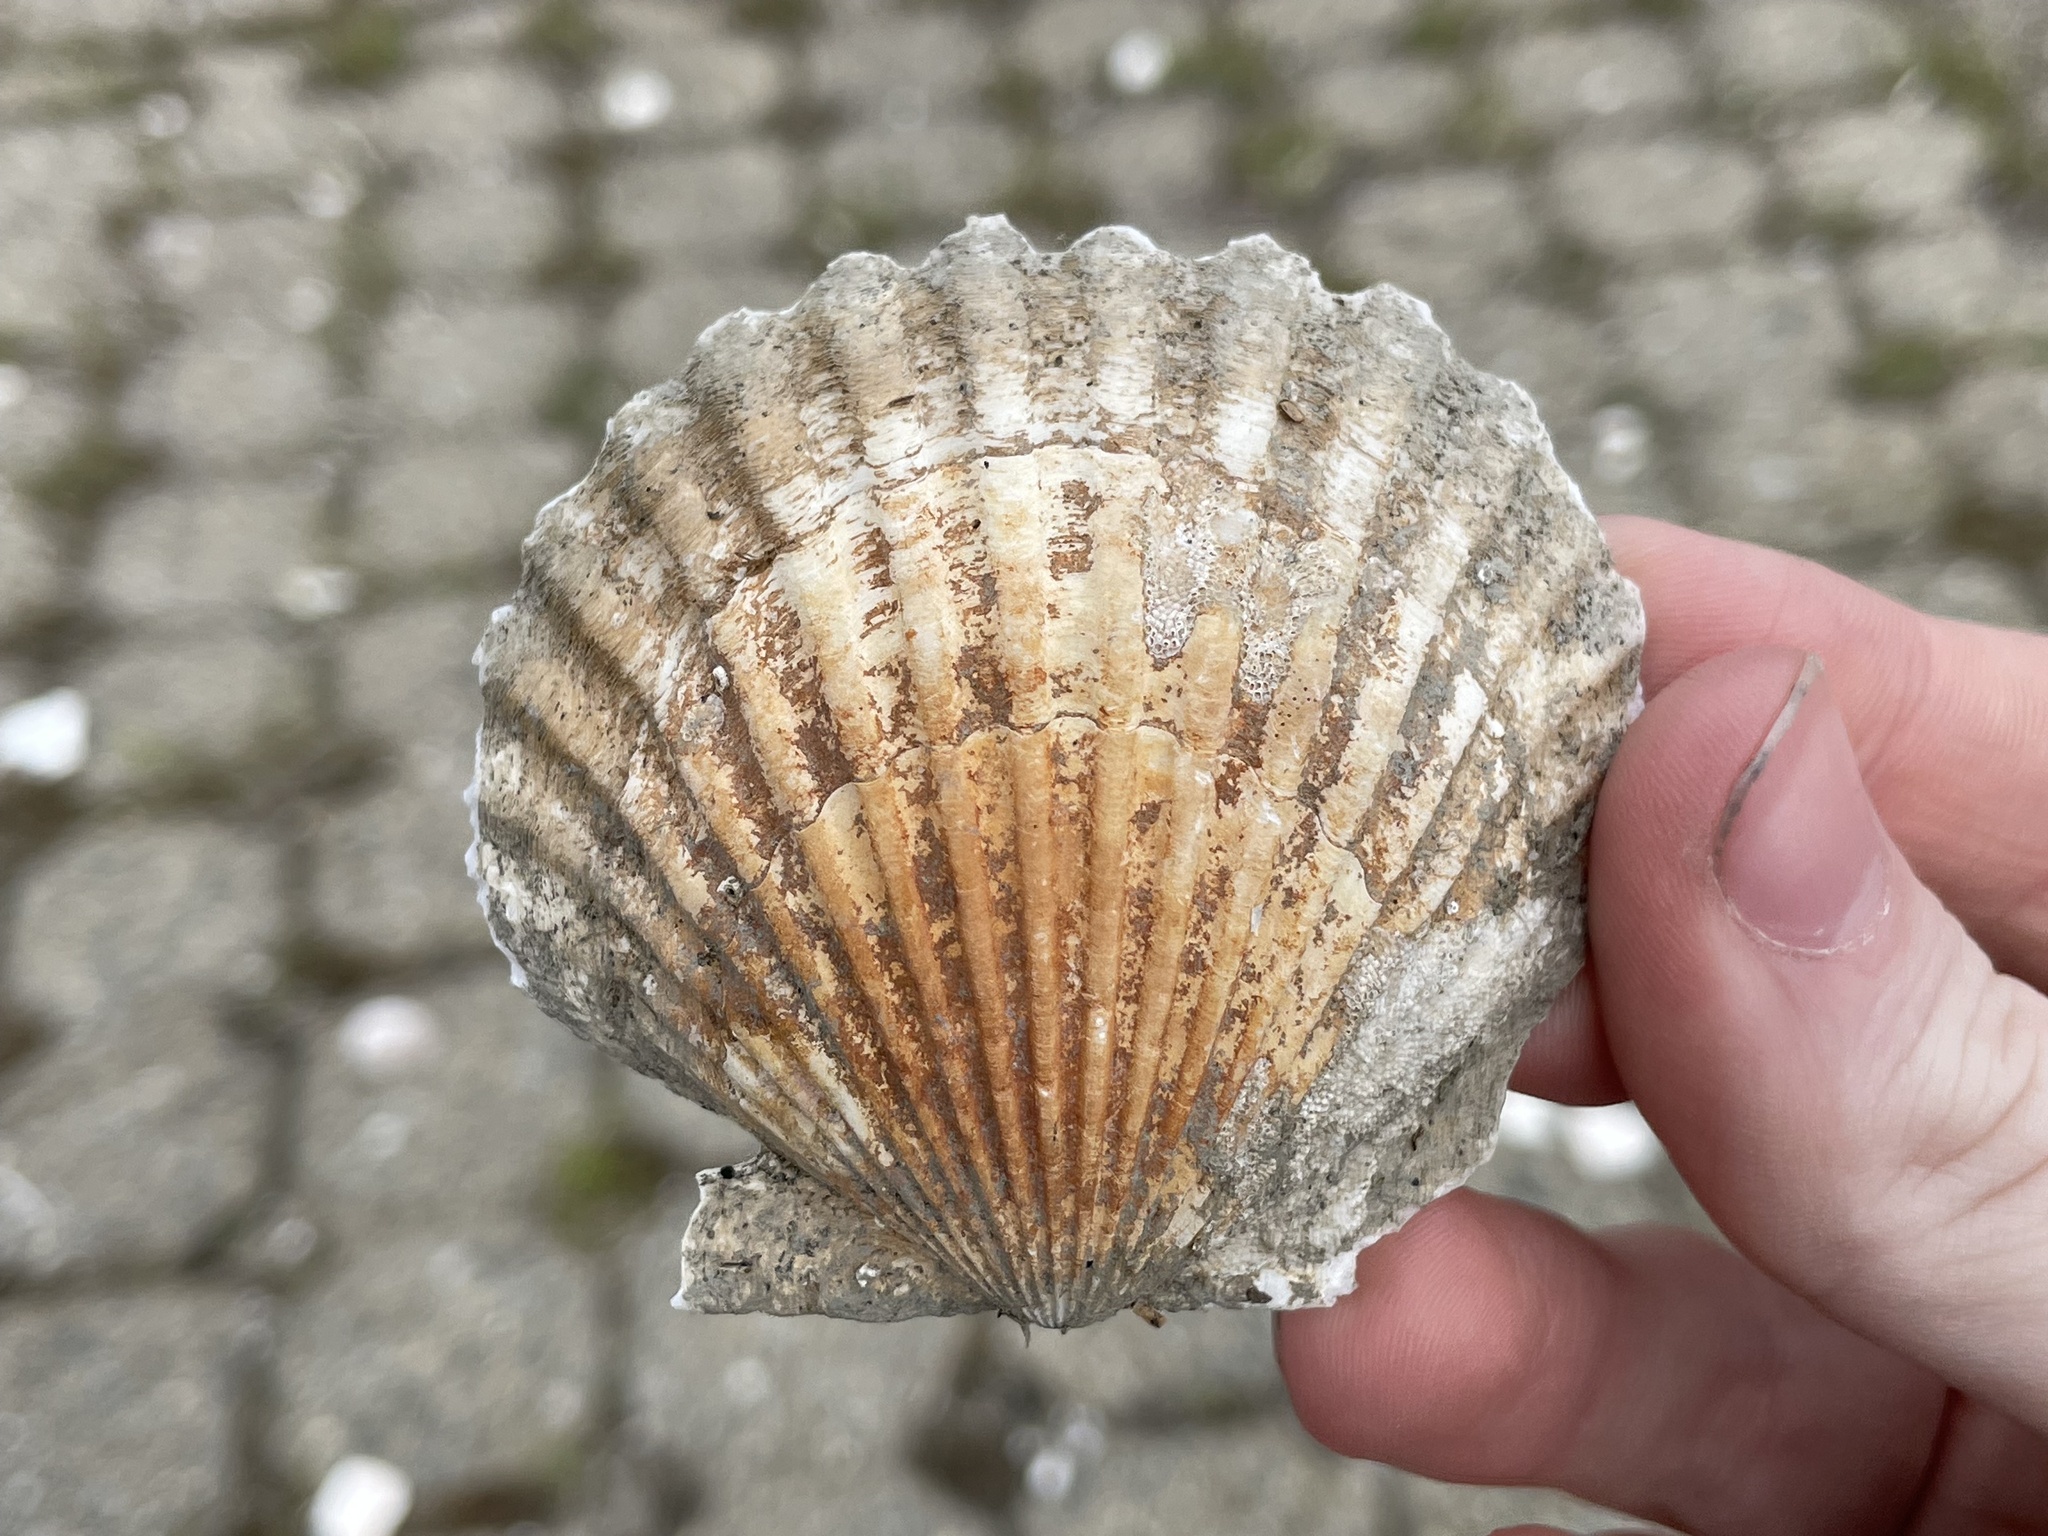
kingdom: Animalia
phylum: Mollusca
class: Bivalvia
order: Pectinida
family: Pectinidae
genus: Argopecten
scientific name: Argopecten irradians
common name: Atlantic bay scallop
